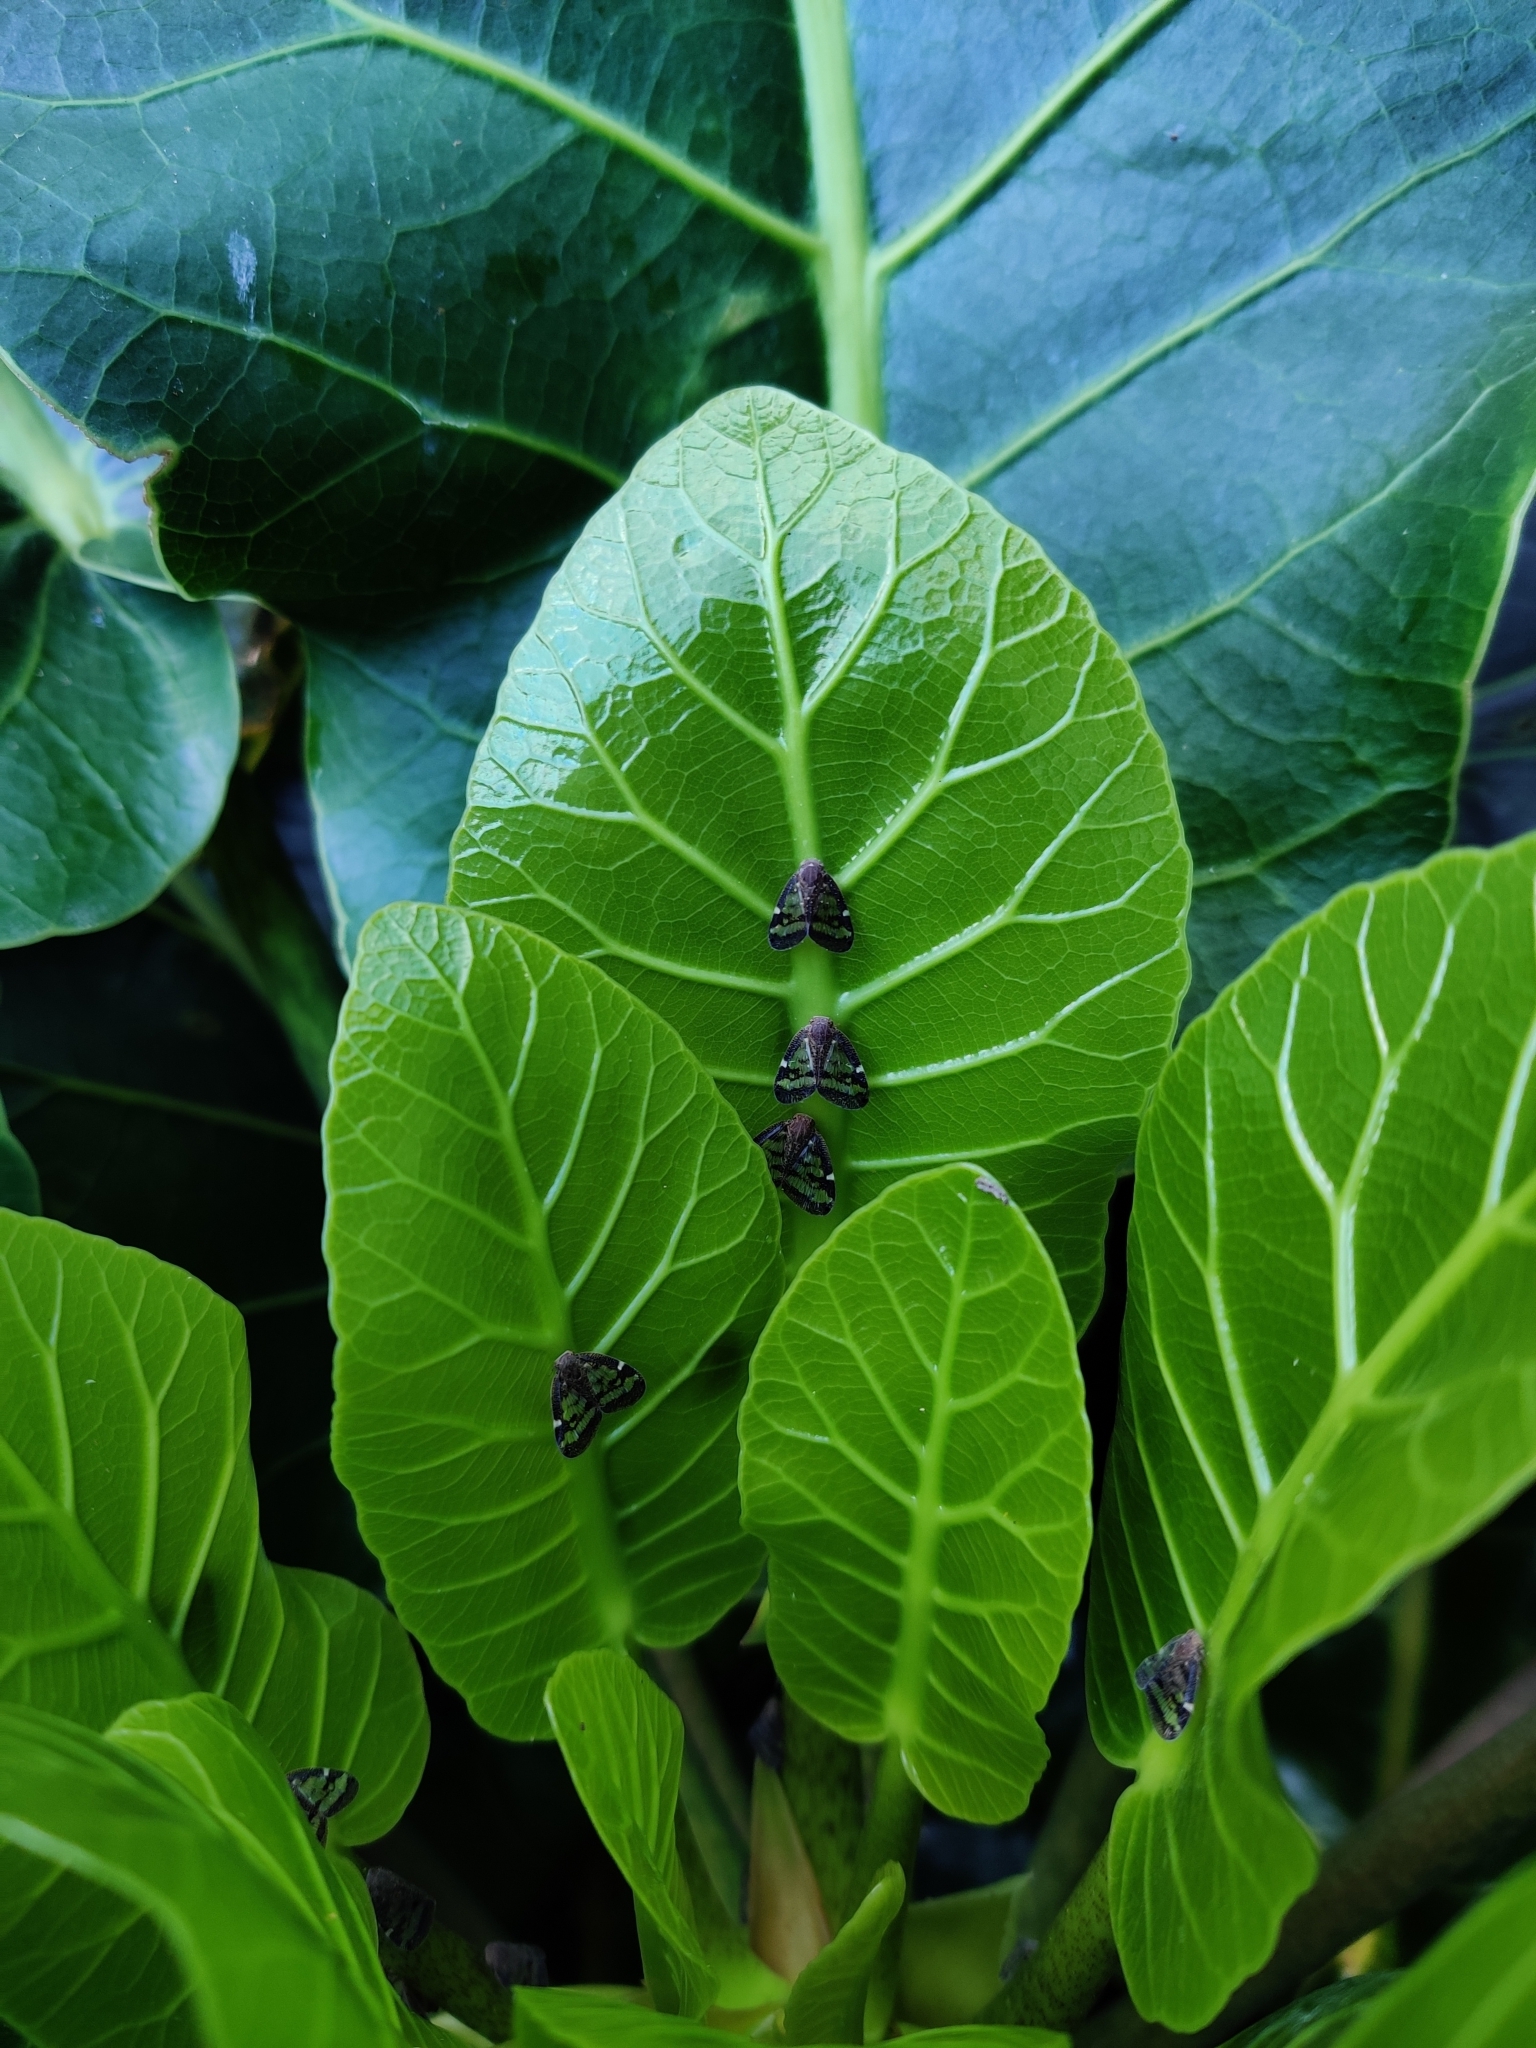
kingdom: Animalia
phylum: Arthropoda
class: Insecta
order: Hemiptera
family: Ricaniidae
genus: Scolypopa
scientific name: Scolypopa australis
